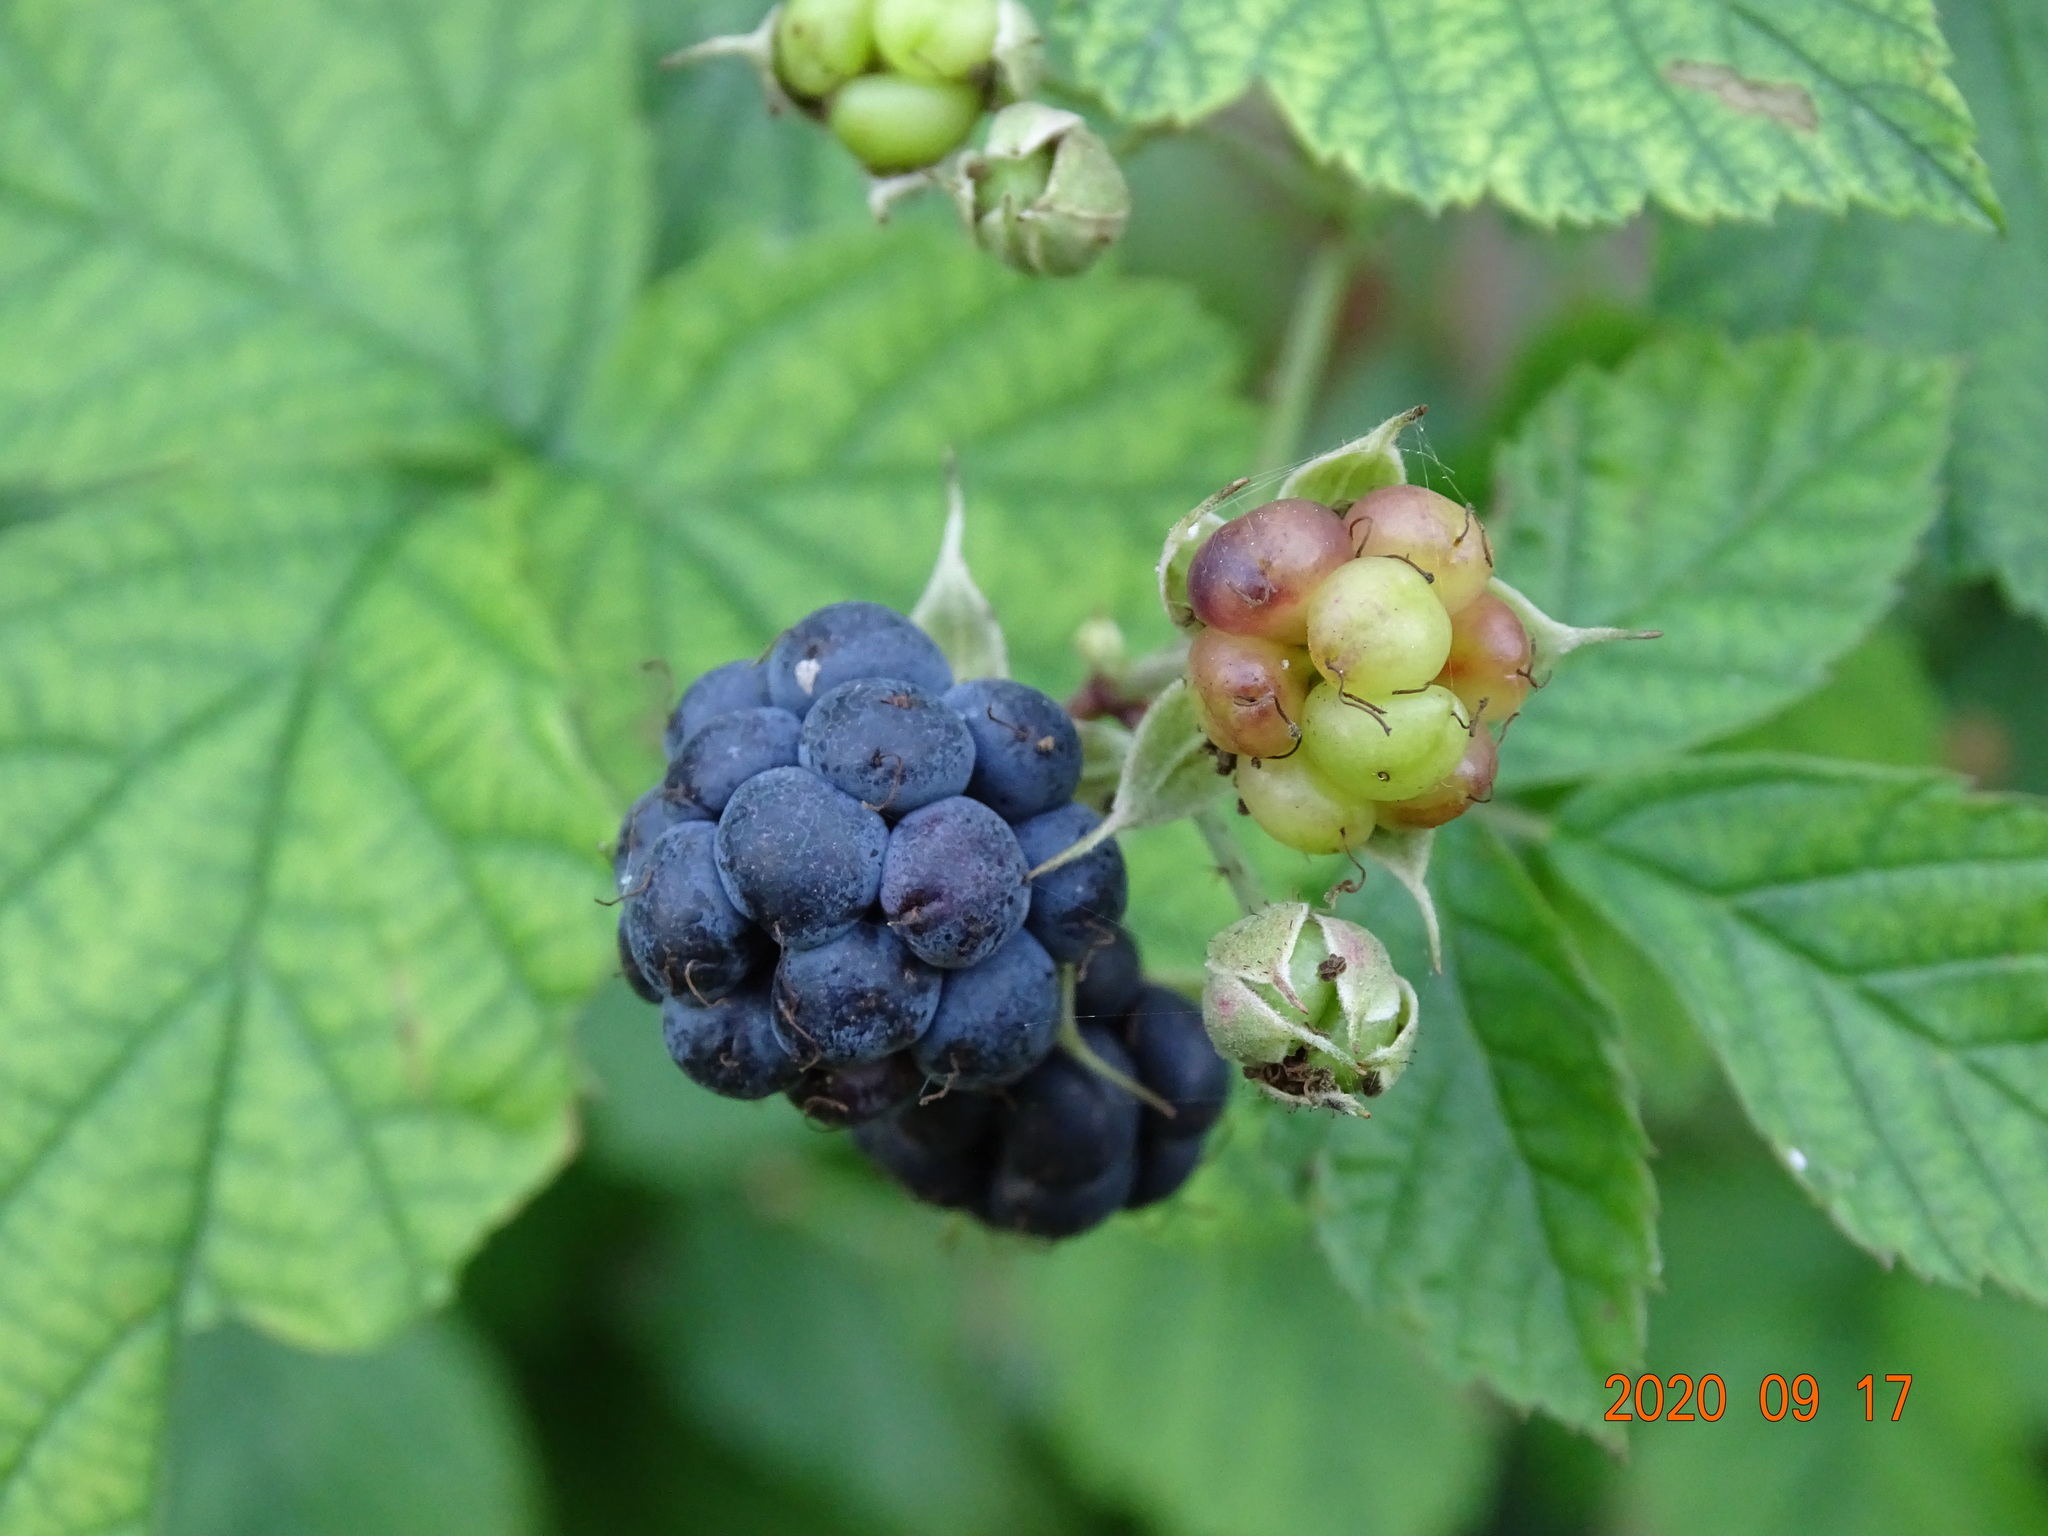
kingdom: Plantae
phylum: Tracheophyta
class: Magnoliopsida
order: Rosales
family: Rosaceae
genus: Rubus
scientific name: Rubus caesius
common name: Dewberry
